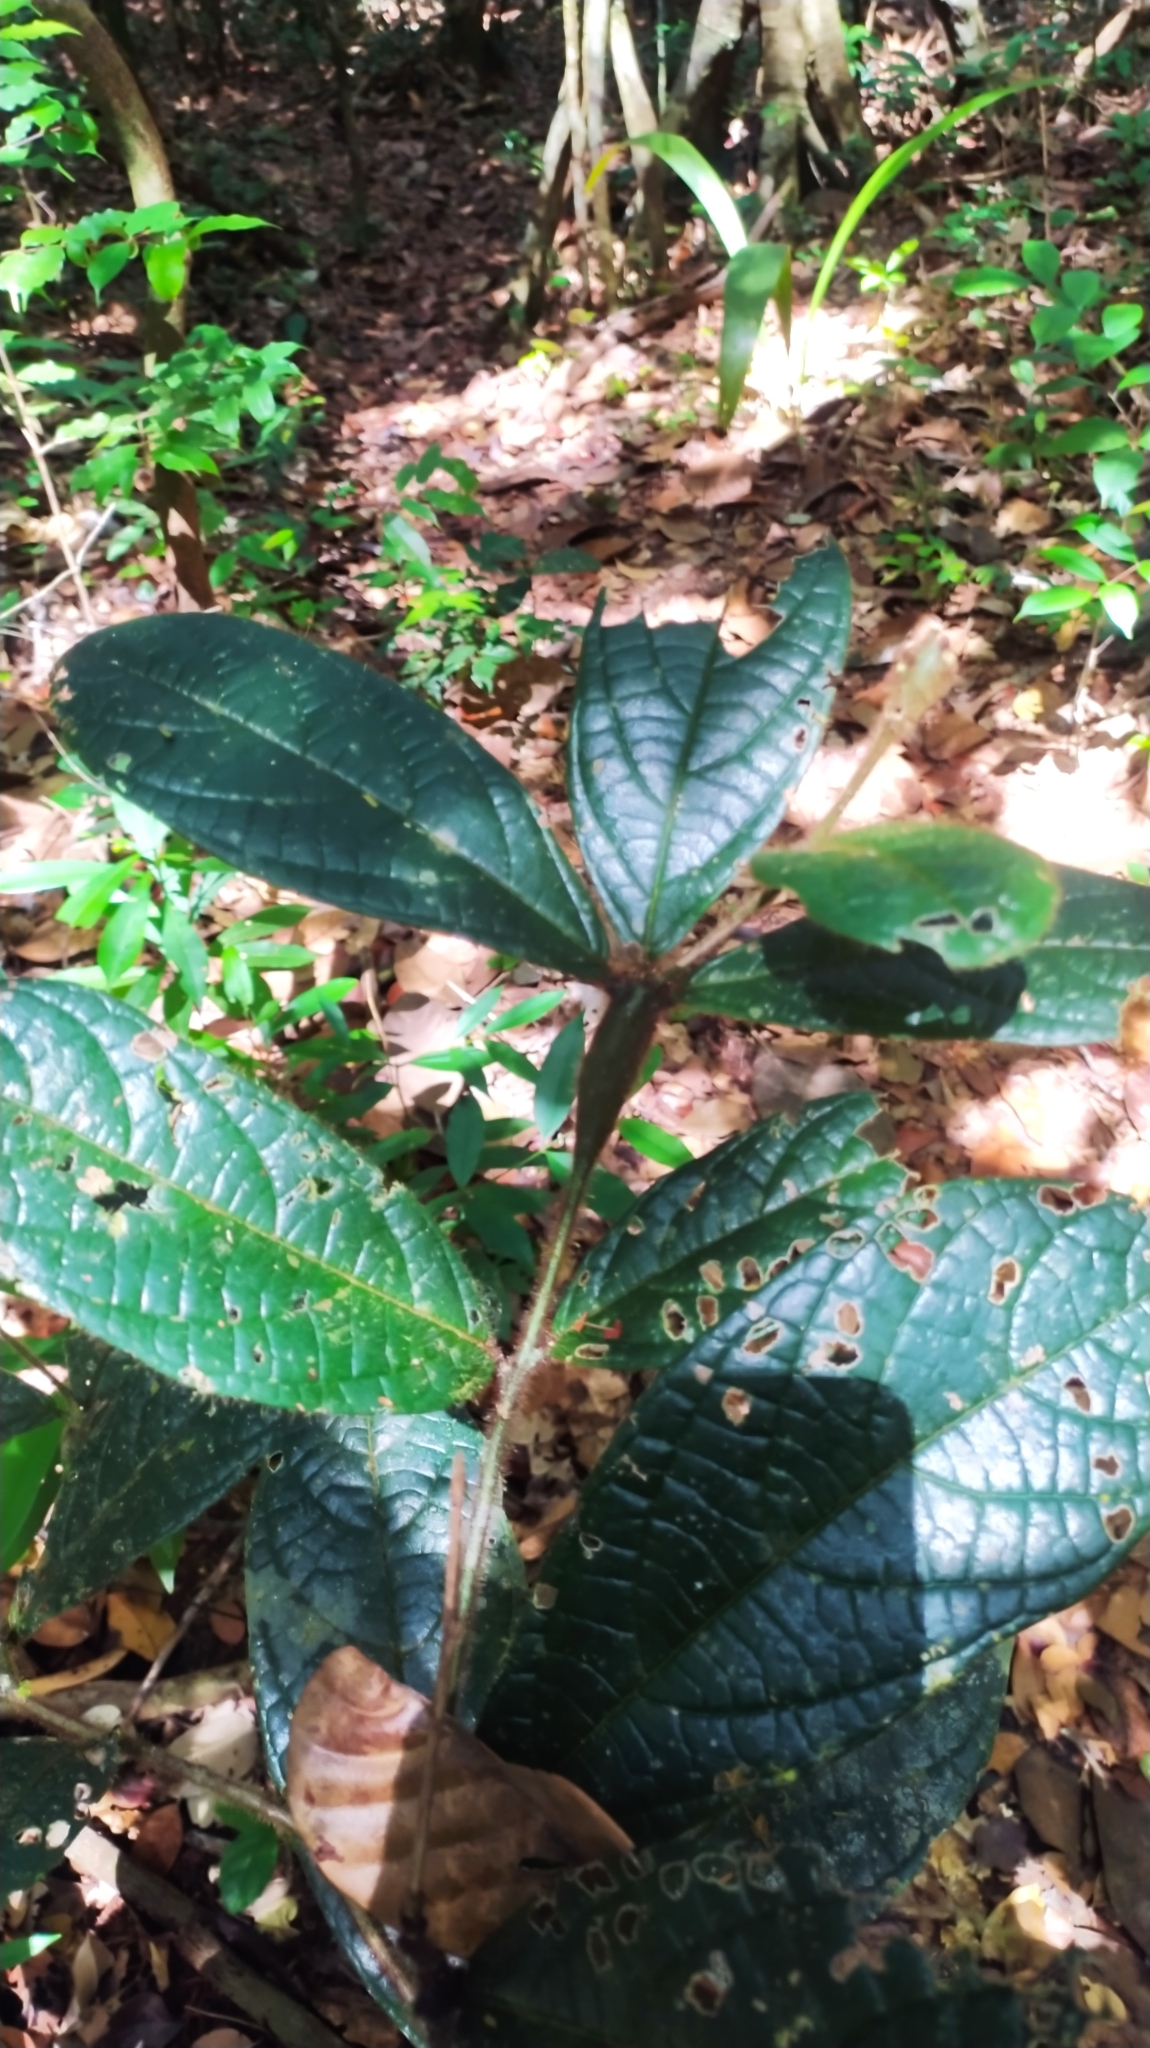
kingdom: Plantae
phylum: Tracheophyta
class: Magnoliopsida
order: Boraginales
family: Cordiaceae
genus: Cordia
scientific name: Cordia nodosa
